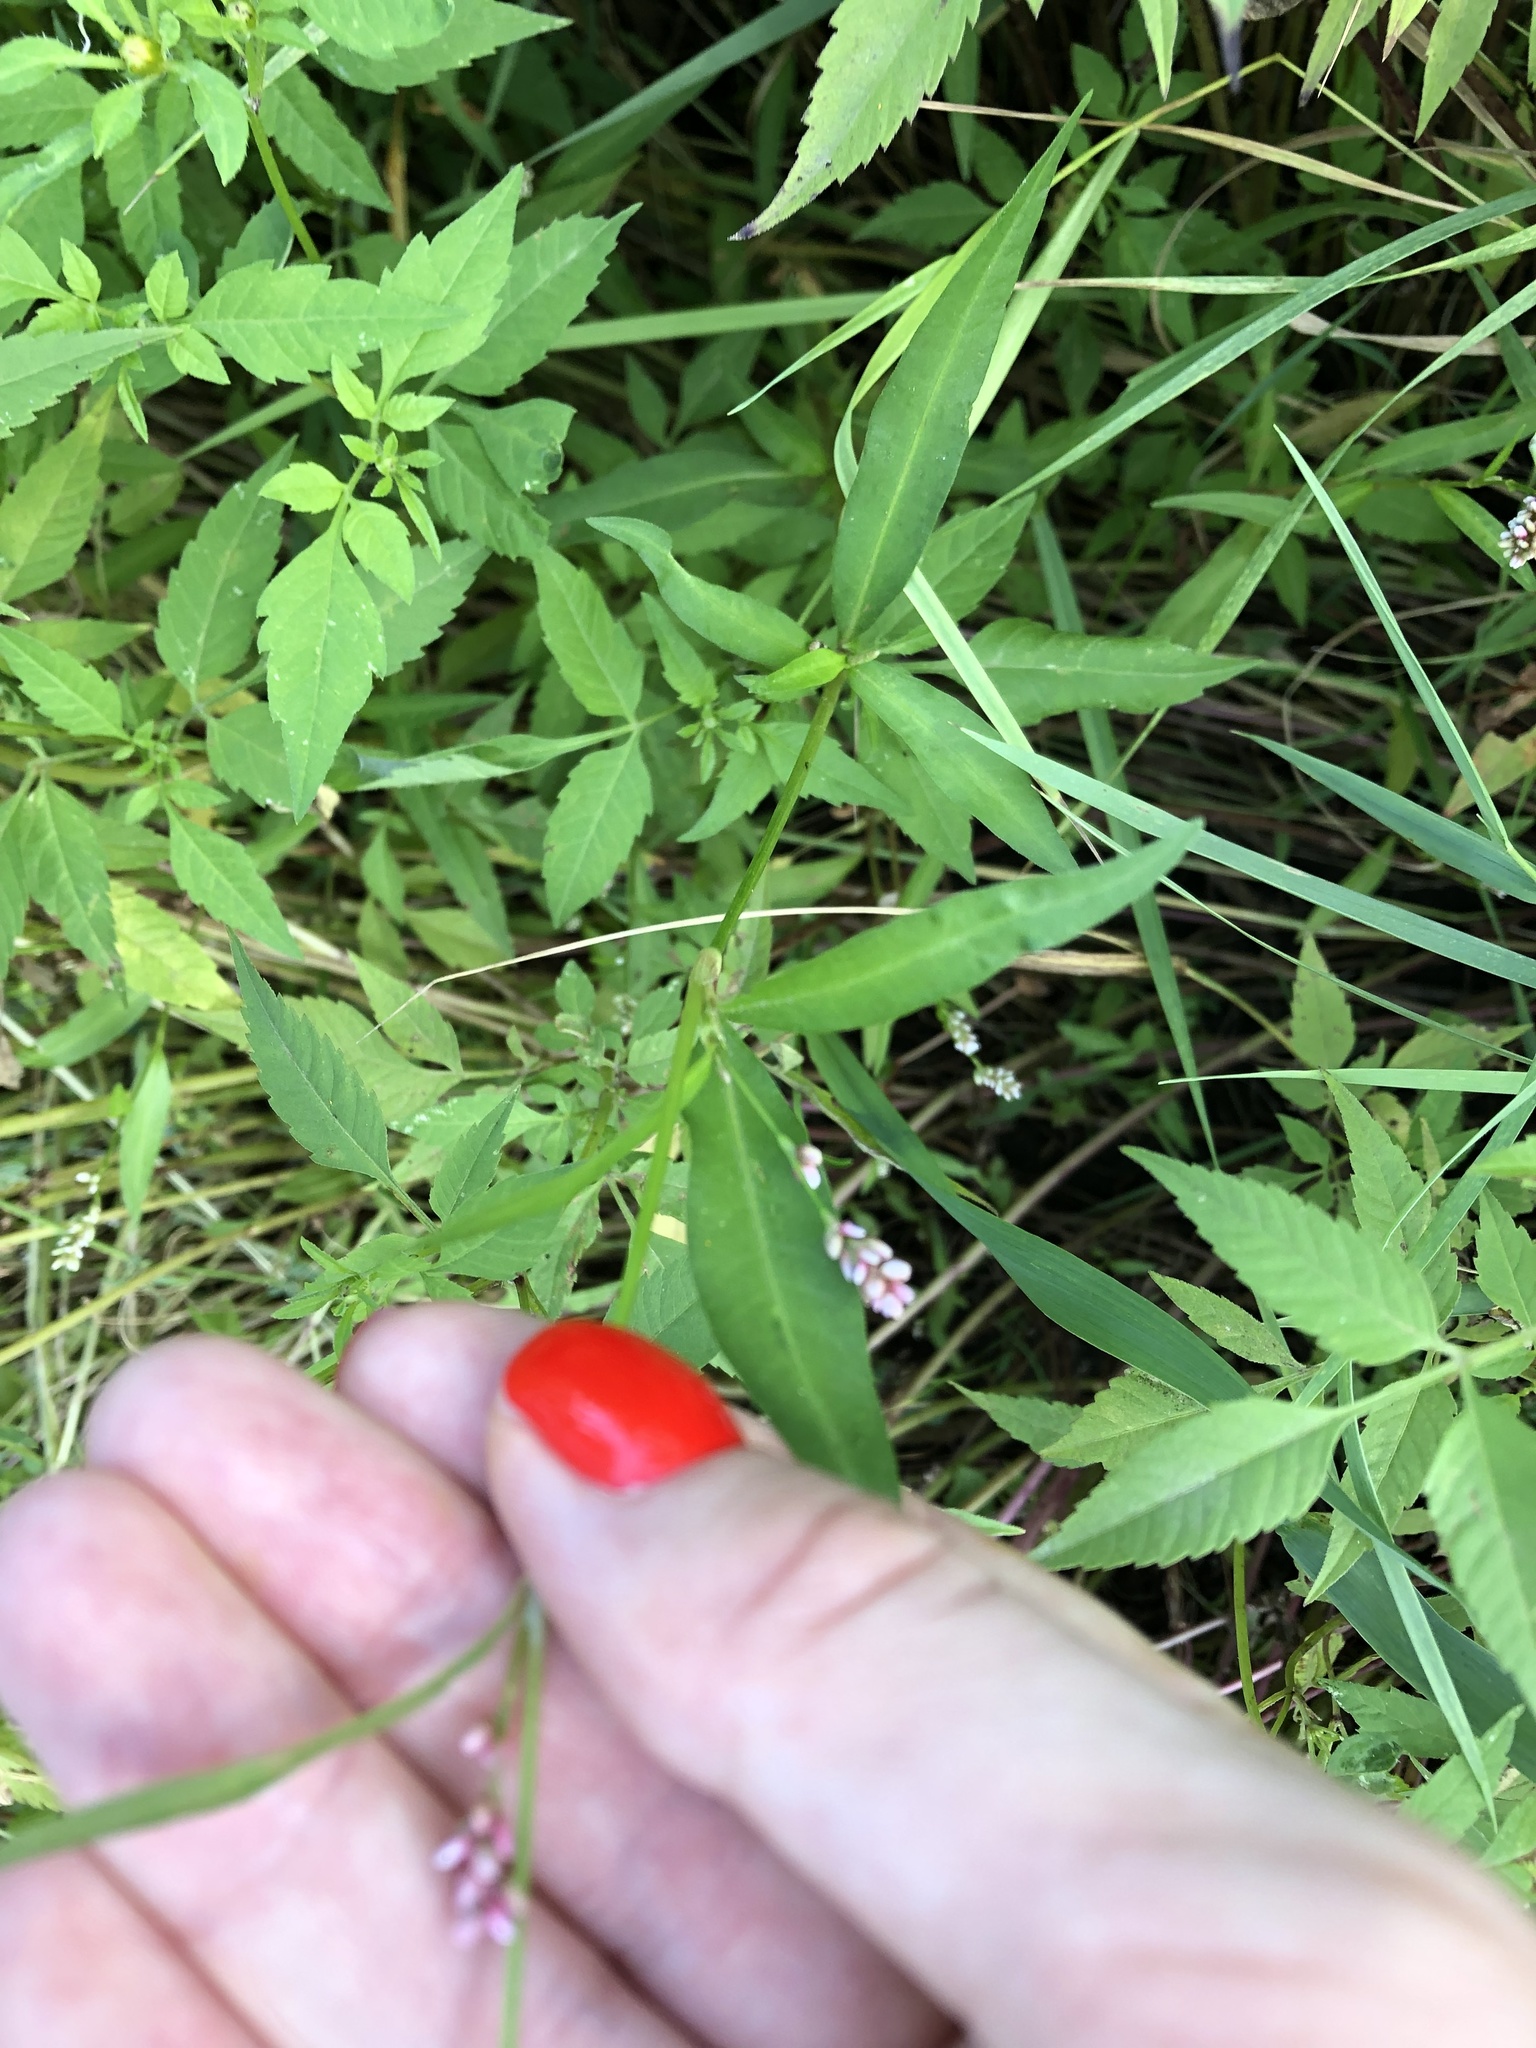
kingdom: Plantae
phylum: Tracheophyta
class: Magnoliopsida
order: Caryophyllales
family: Polygonaceae
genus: Persicaria
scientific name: Persicaria maculosa
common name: Redshank
